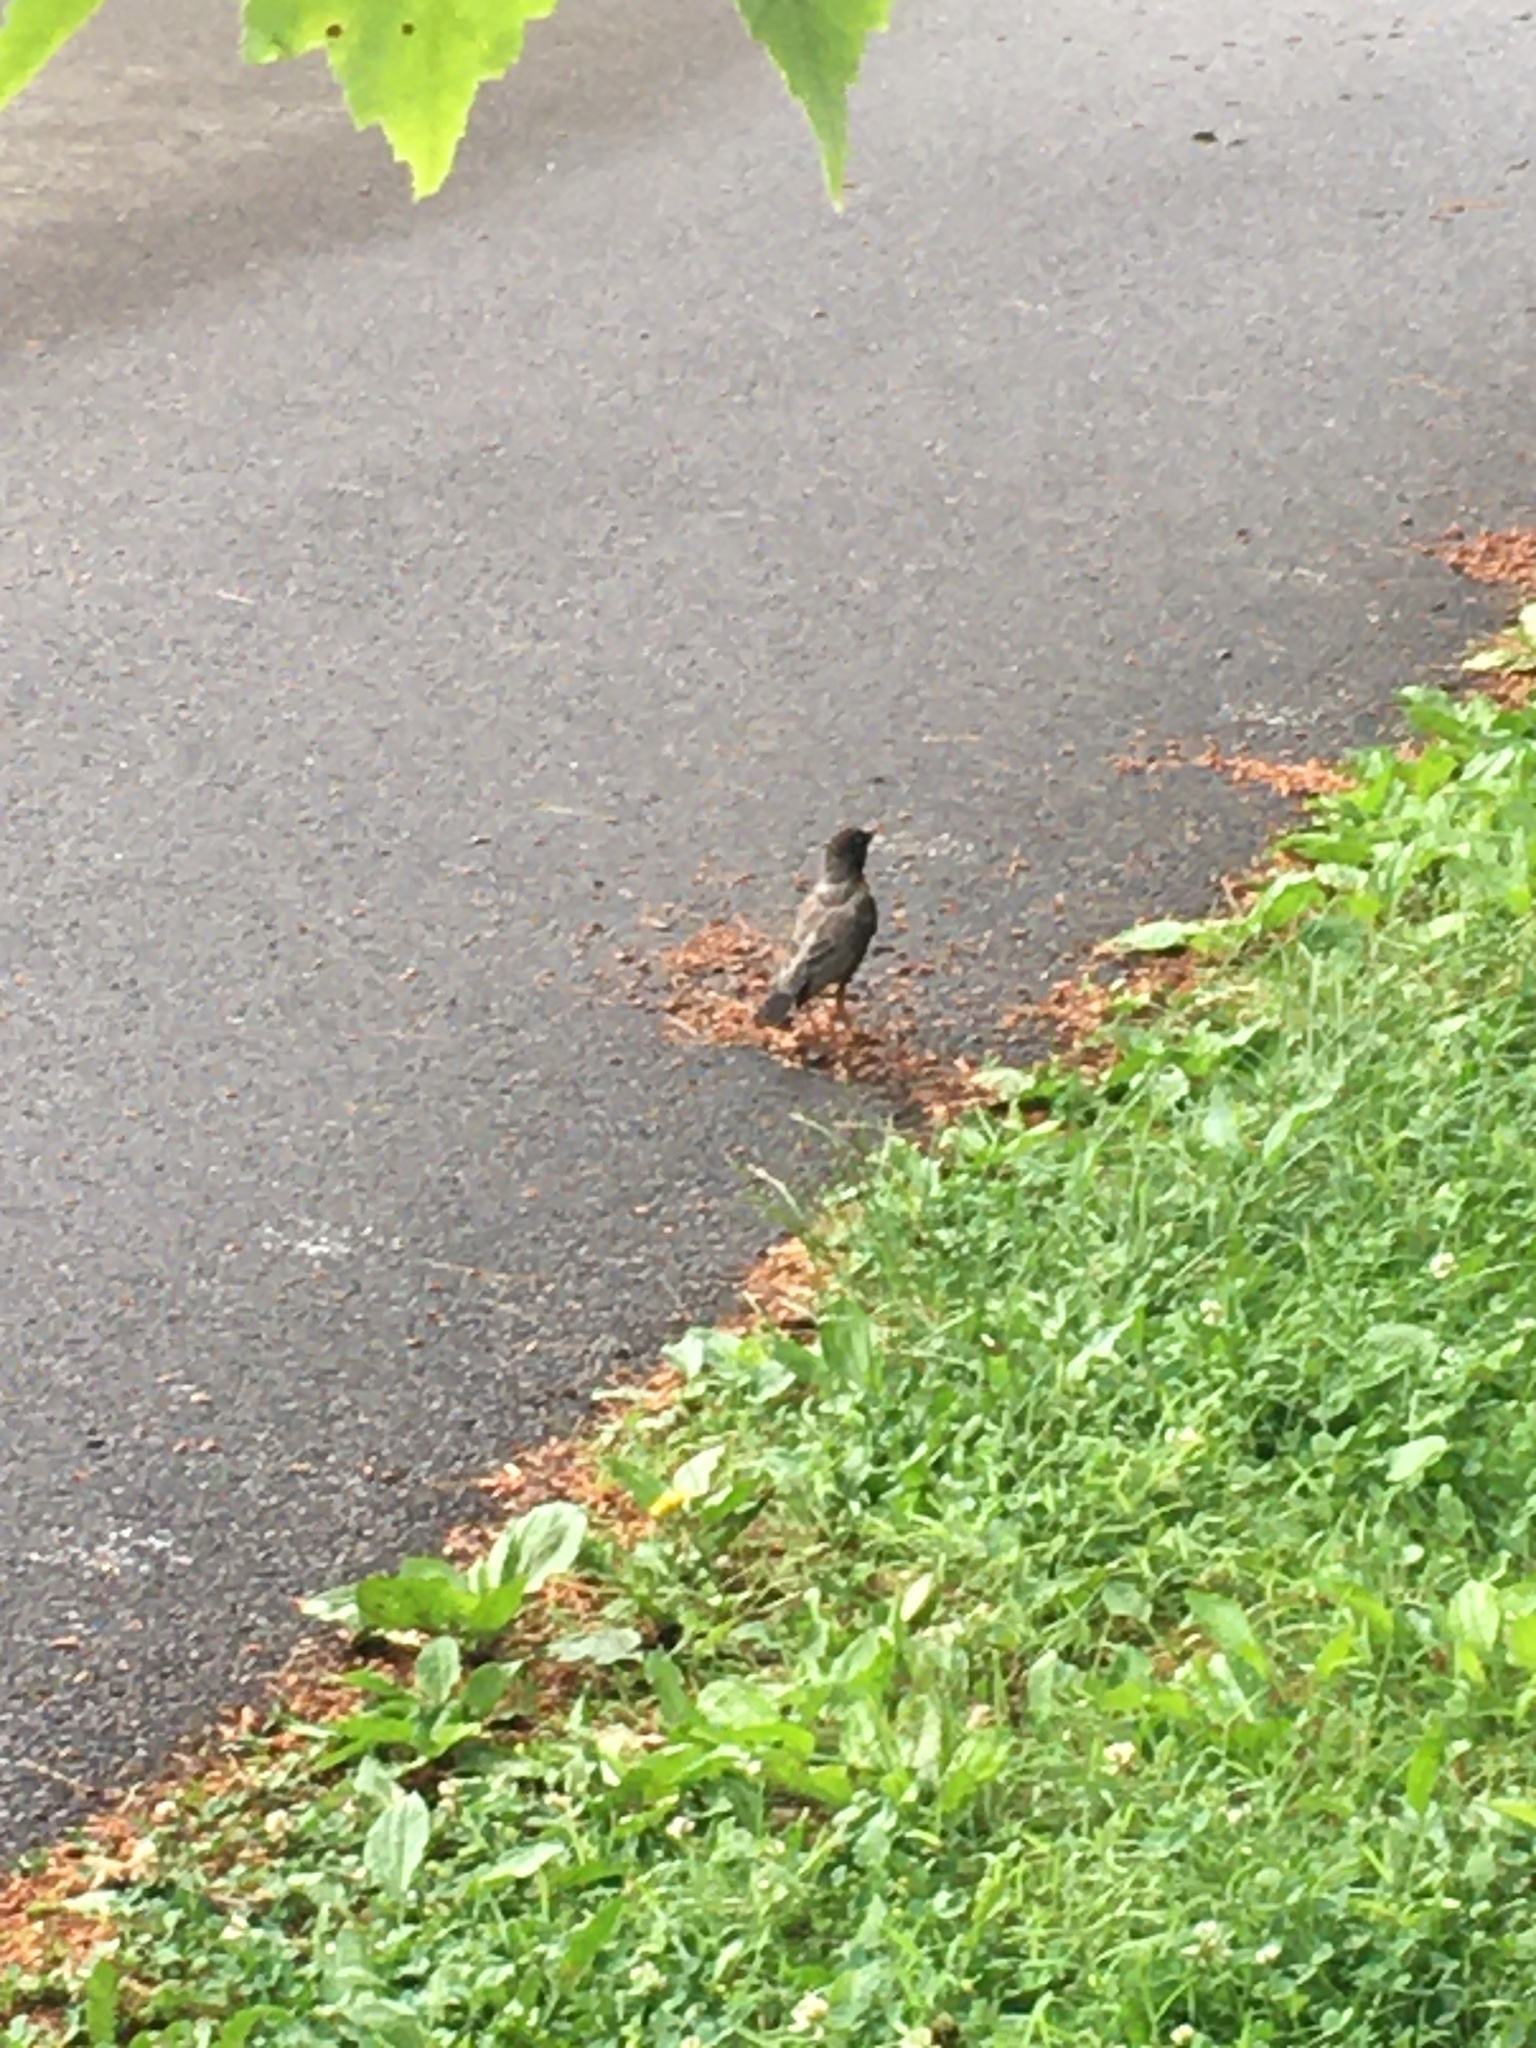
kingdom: Animalia
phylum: Chordata
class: Aves
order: Passeriformes
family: Turdidae
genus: Turdus
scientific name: Turdus migratorius
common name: American robin
